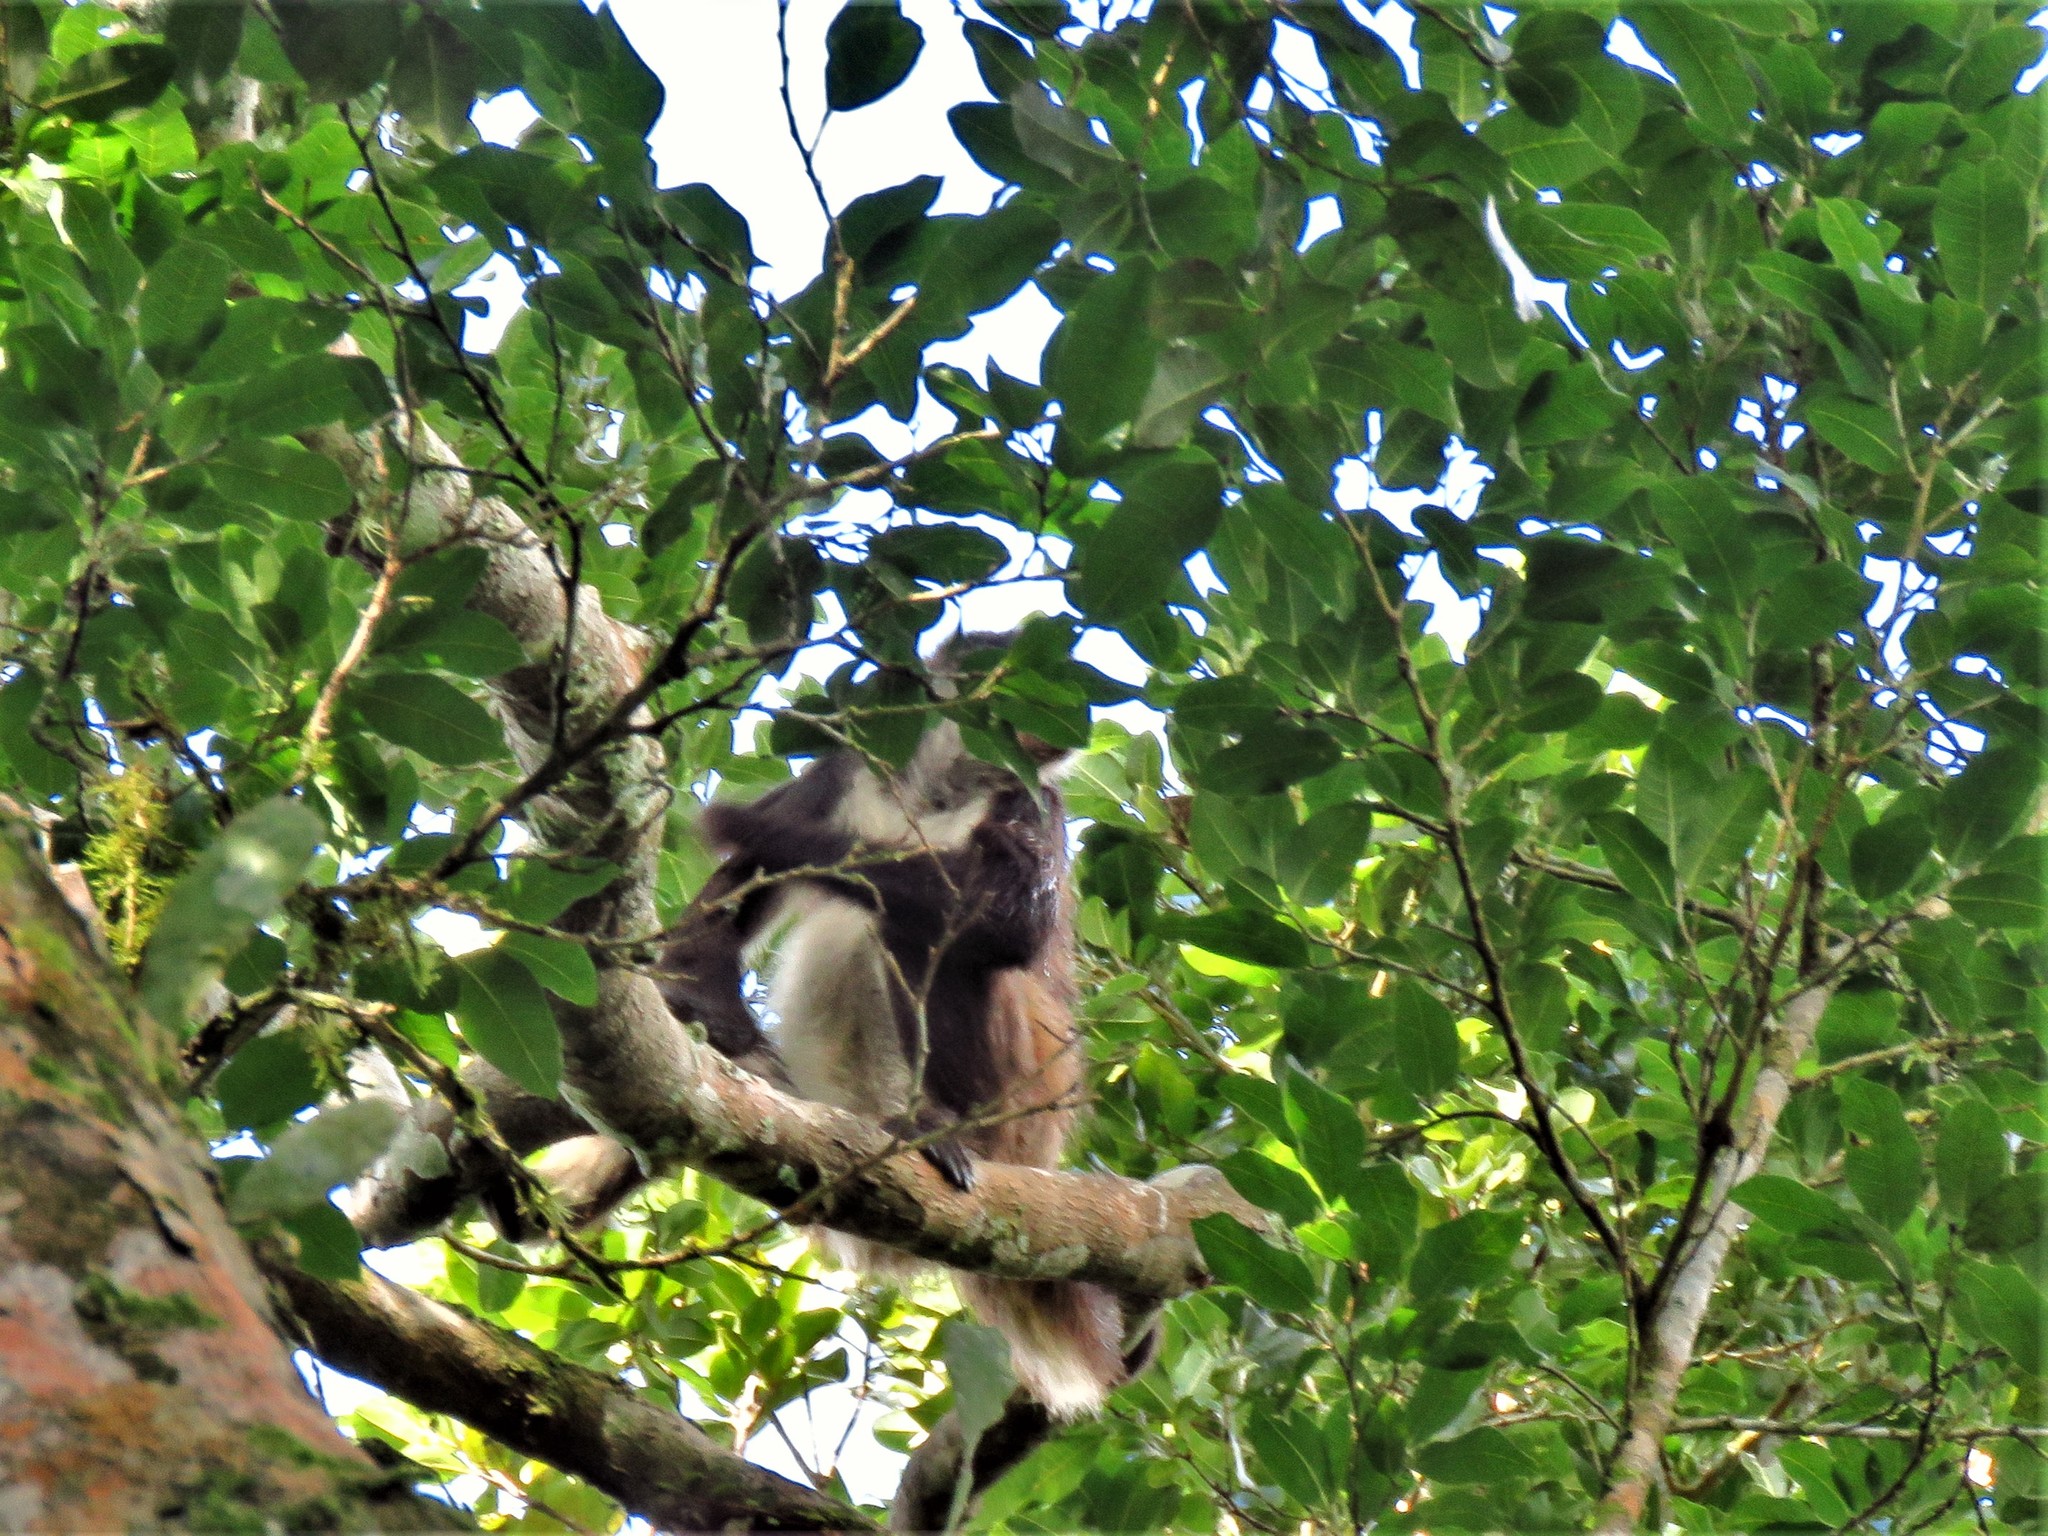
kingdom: Animalia
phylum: Chordata
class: Mammalia
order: Primates
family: Atelidae
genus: Ateles
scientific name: Ateles geoffroyi
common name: Black-handed spider monkey
